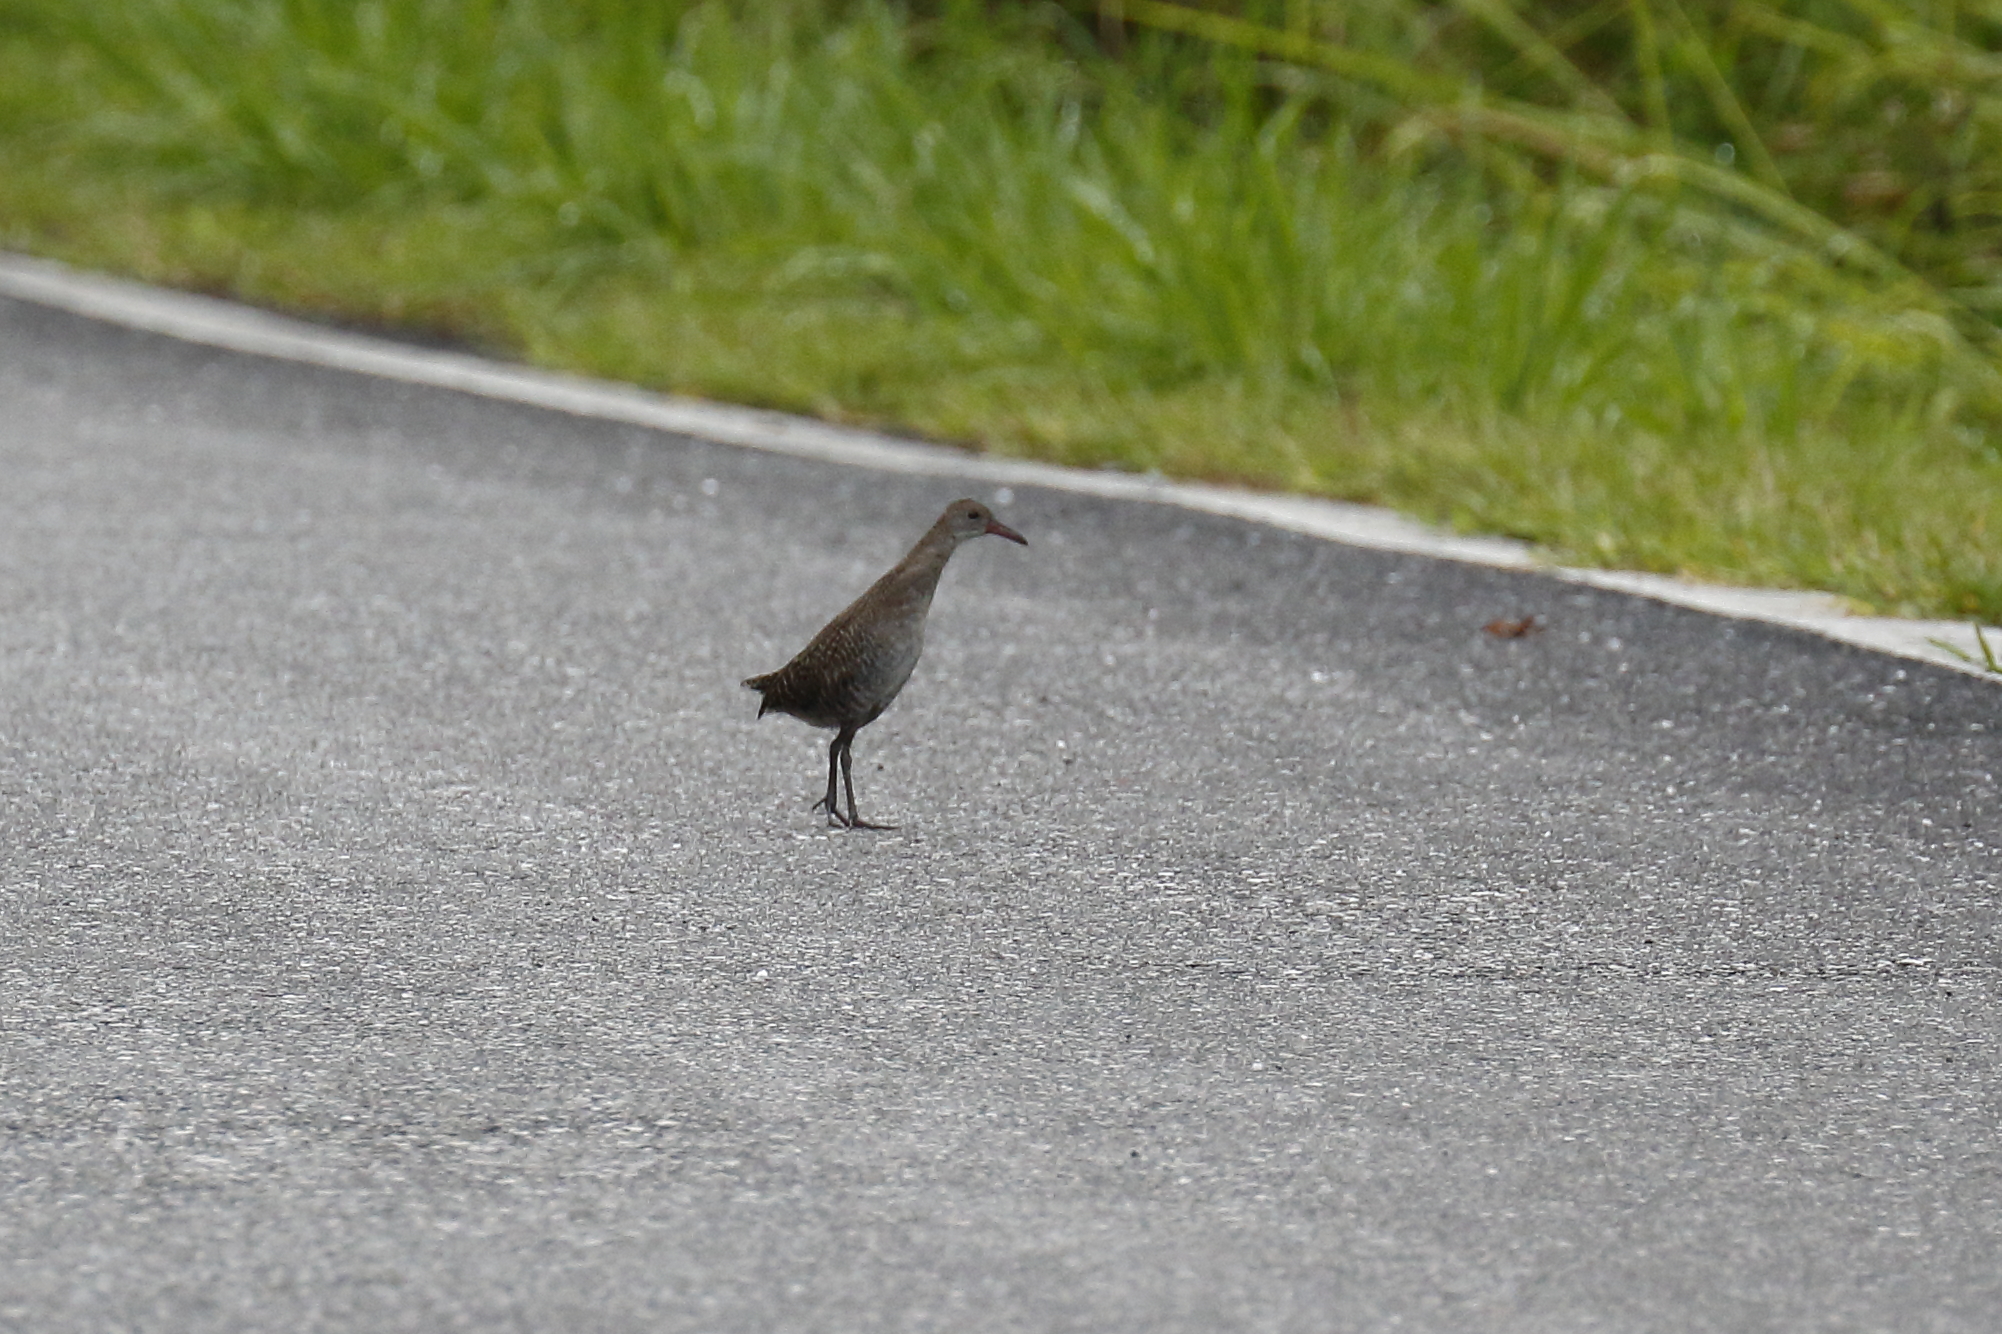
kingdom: Animalia
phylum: Chordata
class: Aves
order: Gruiformes
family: Rallidae
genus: Gallirallus
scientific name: Gallirallus striatus
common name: Slaty-breasted rail
